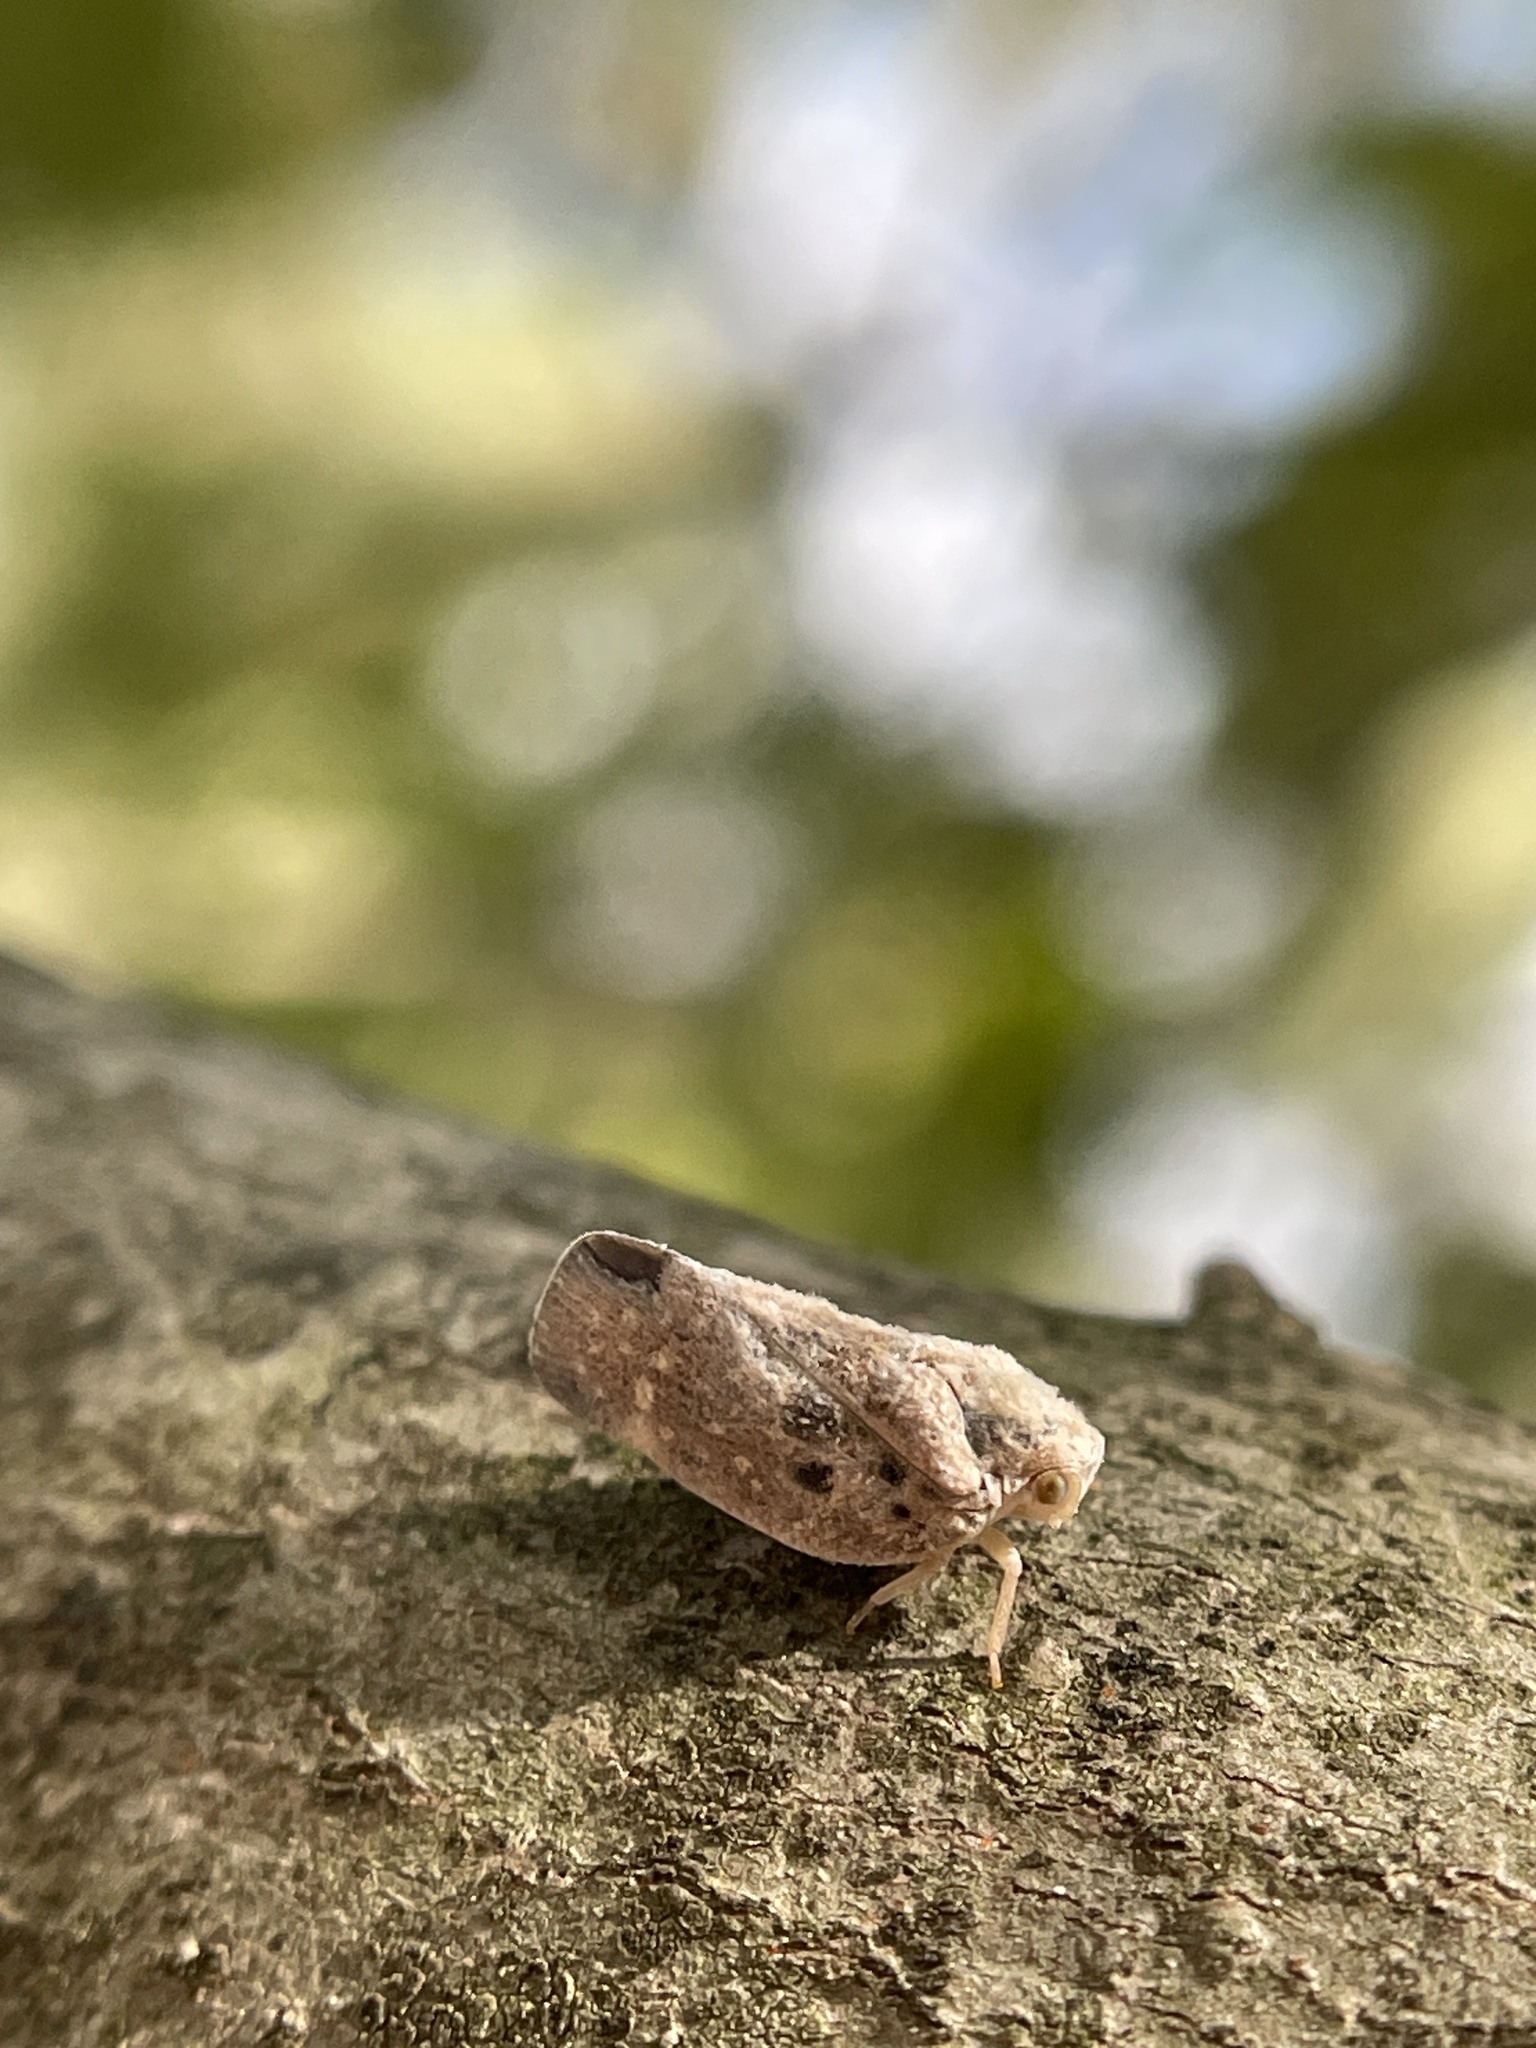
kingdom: Animalia
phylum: Arthropoda
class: Insecta
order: Hemiptera
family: Flatidae
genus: Metcalfa
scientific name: Metcalfa pruinosa
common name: Citrus flatid planthopper
